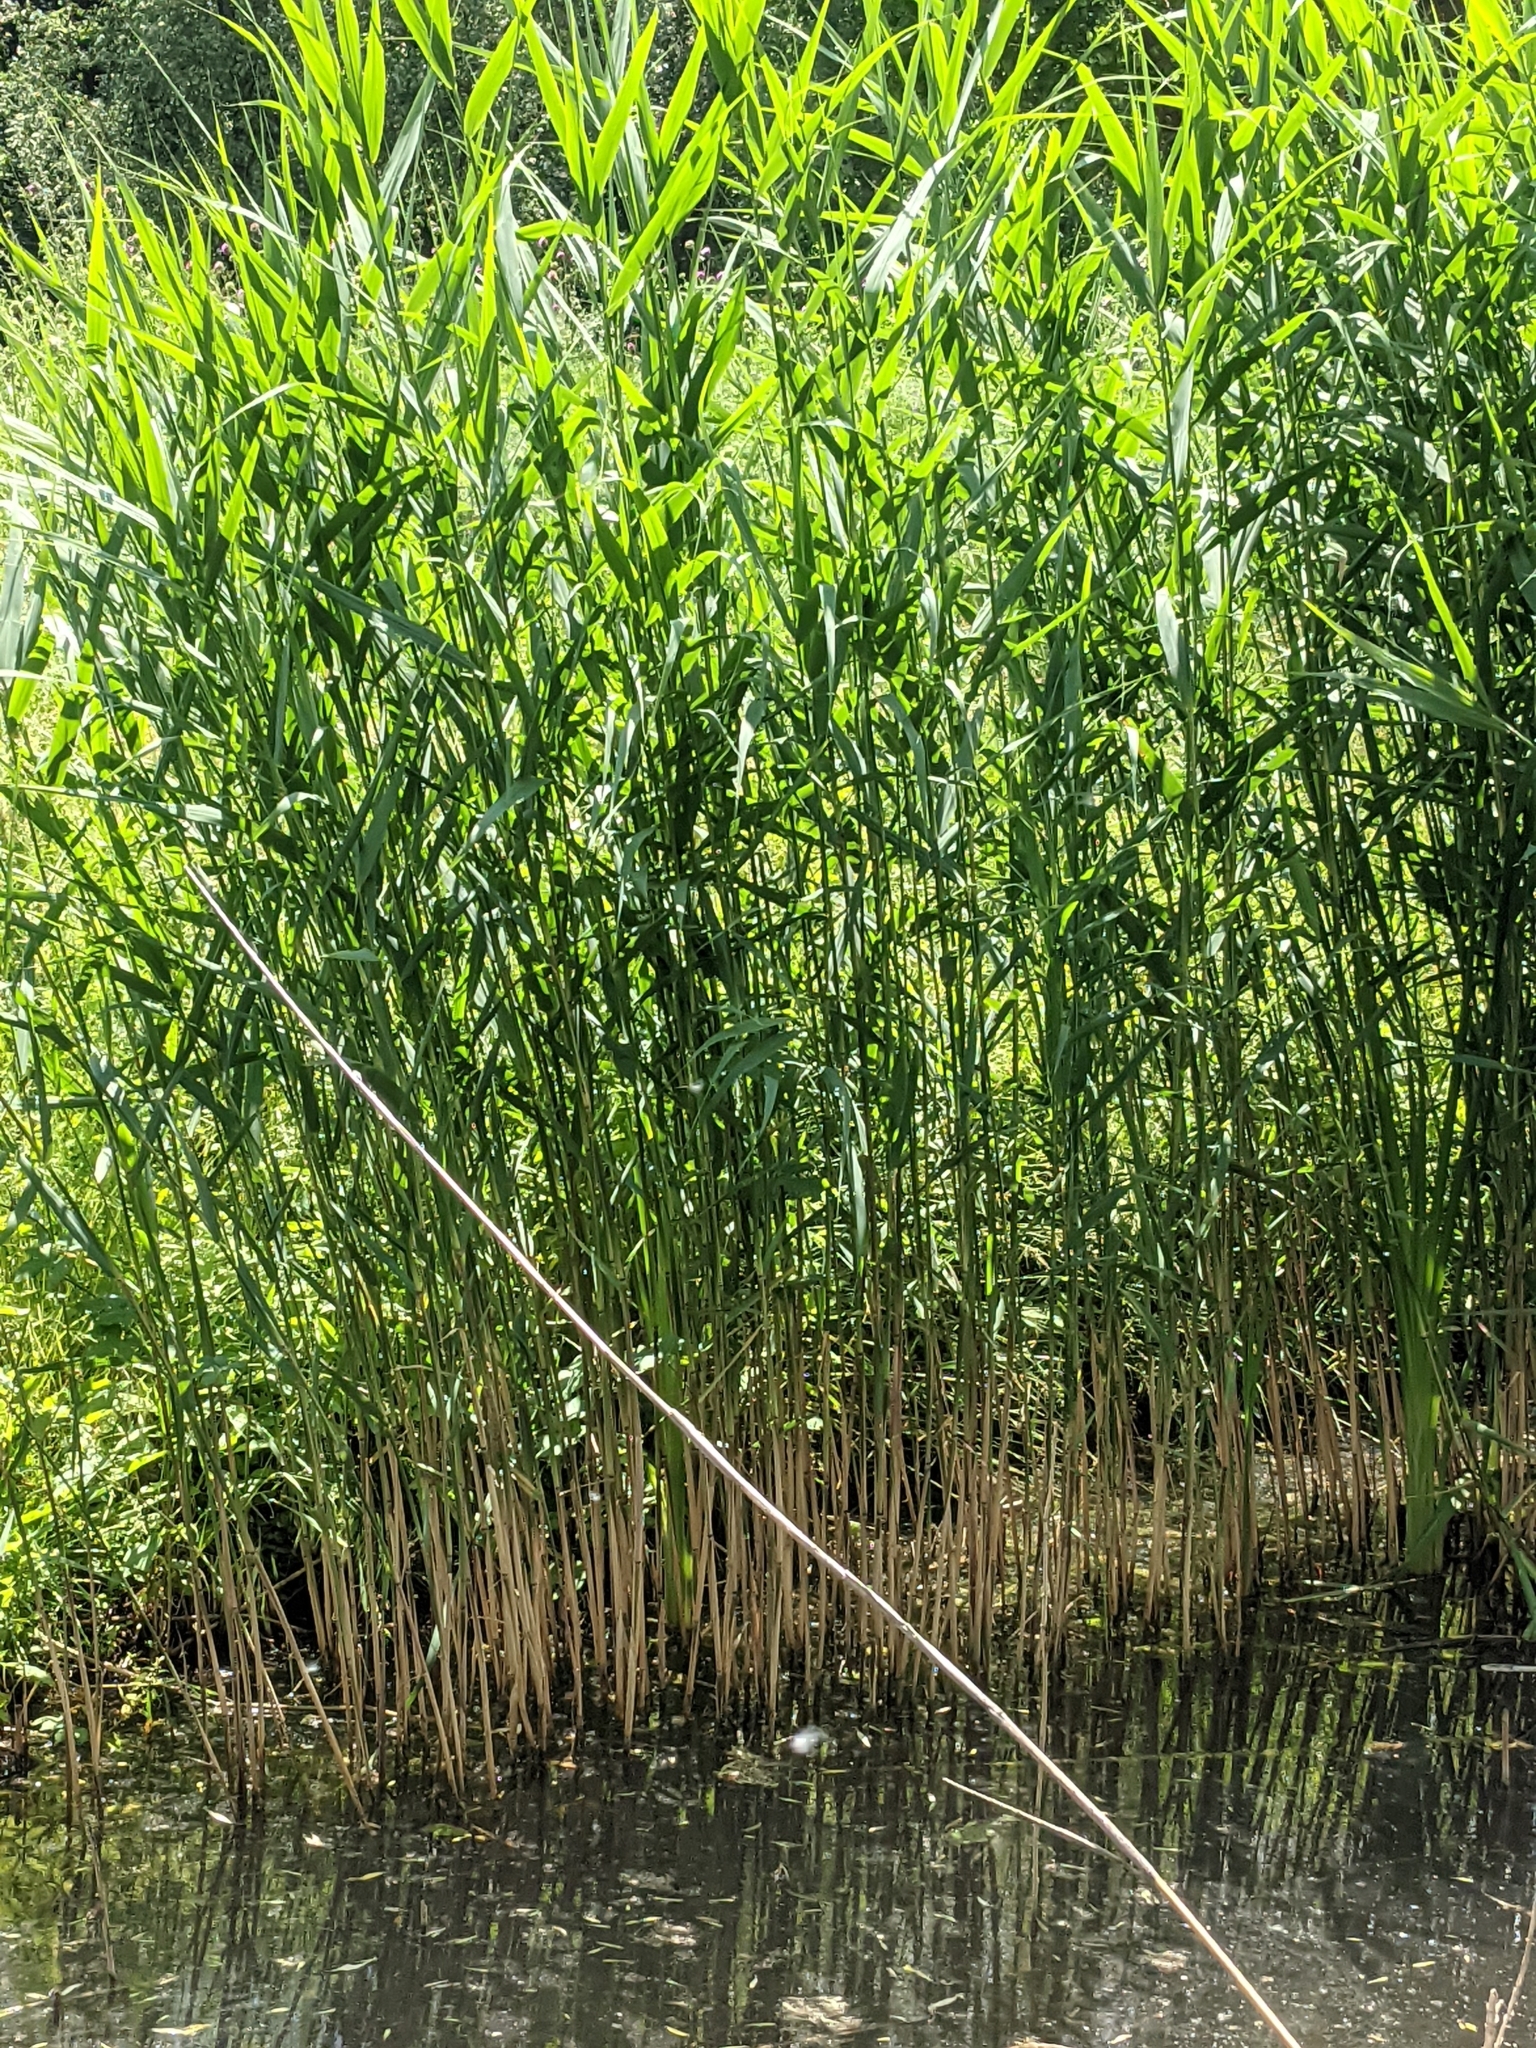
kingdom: Plantae
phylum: Tracheophyta
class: Liliopsida
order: Poales
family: Poaceae
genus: Phragmites
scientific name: Phragmites australis
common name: Common reed
